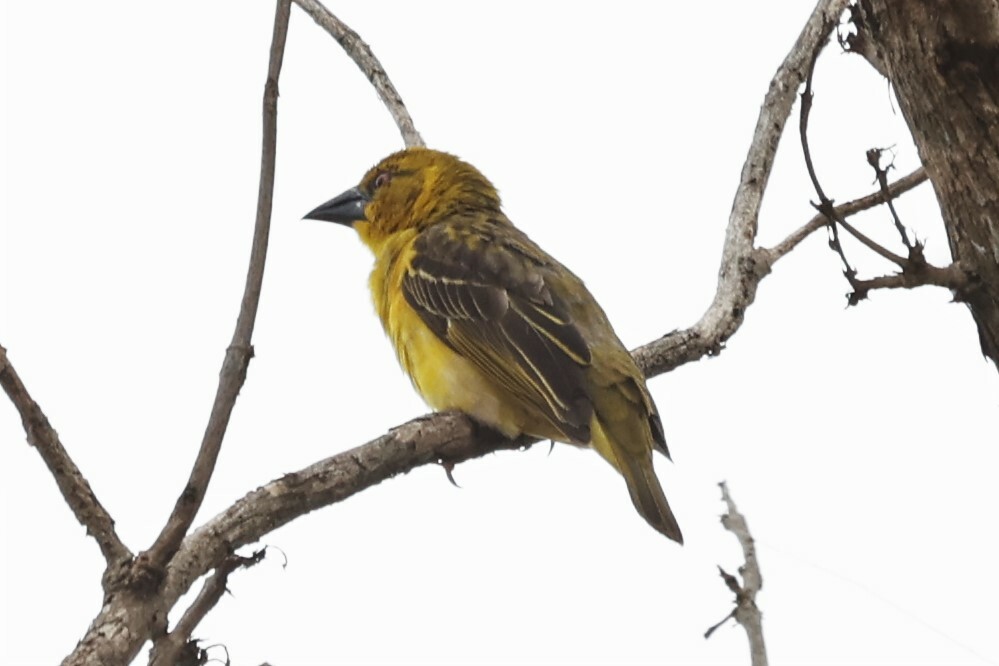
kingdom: Animalia
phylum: Chordata
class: Aves
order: Passeriformes
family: Ploceidae
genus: Ploceus
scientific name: Ploceus cucullatus
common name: Village weaver
